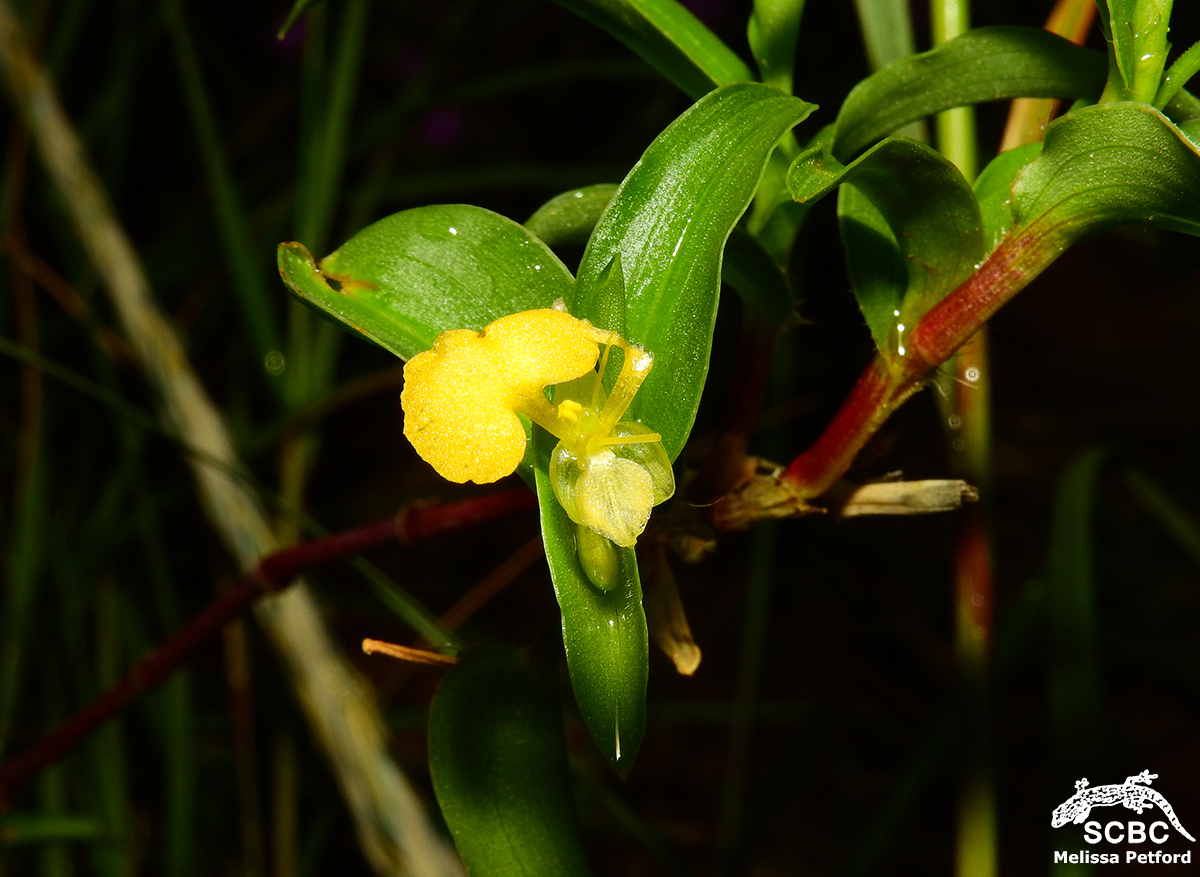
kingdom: Plantae
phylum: Tracheophyta
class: Liliopsida
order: Commelinales
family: Commelinaceae
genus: Commelina
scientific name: Commelina africana
